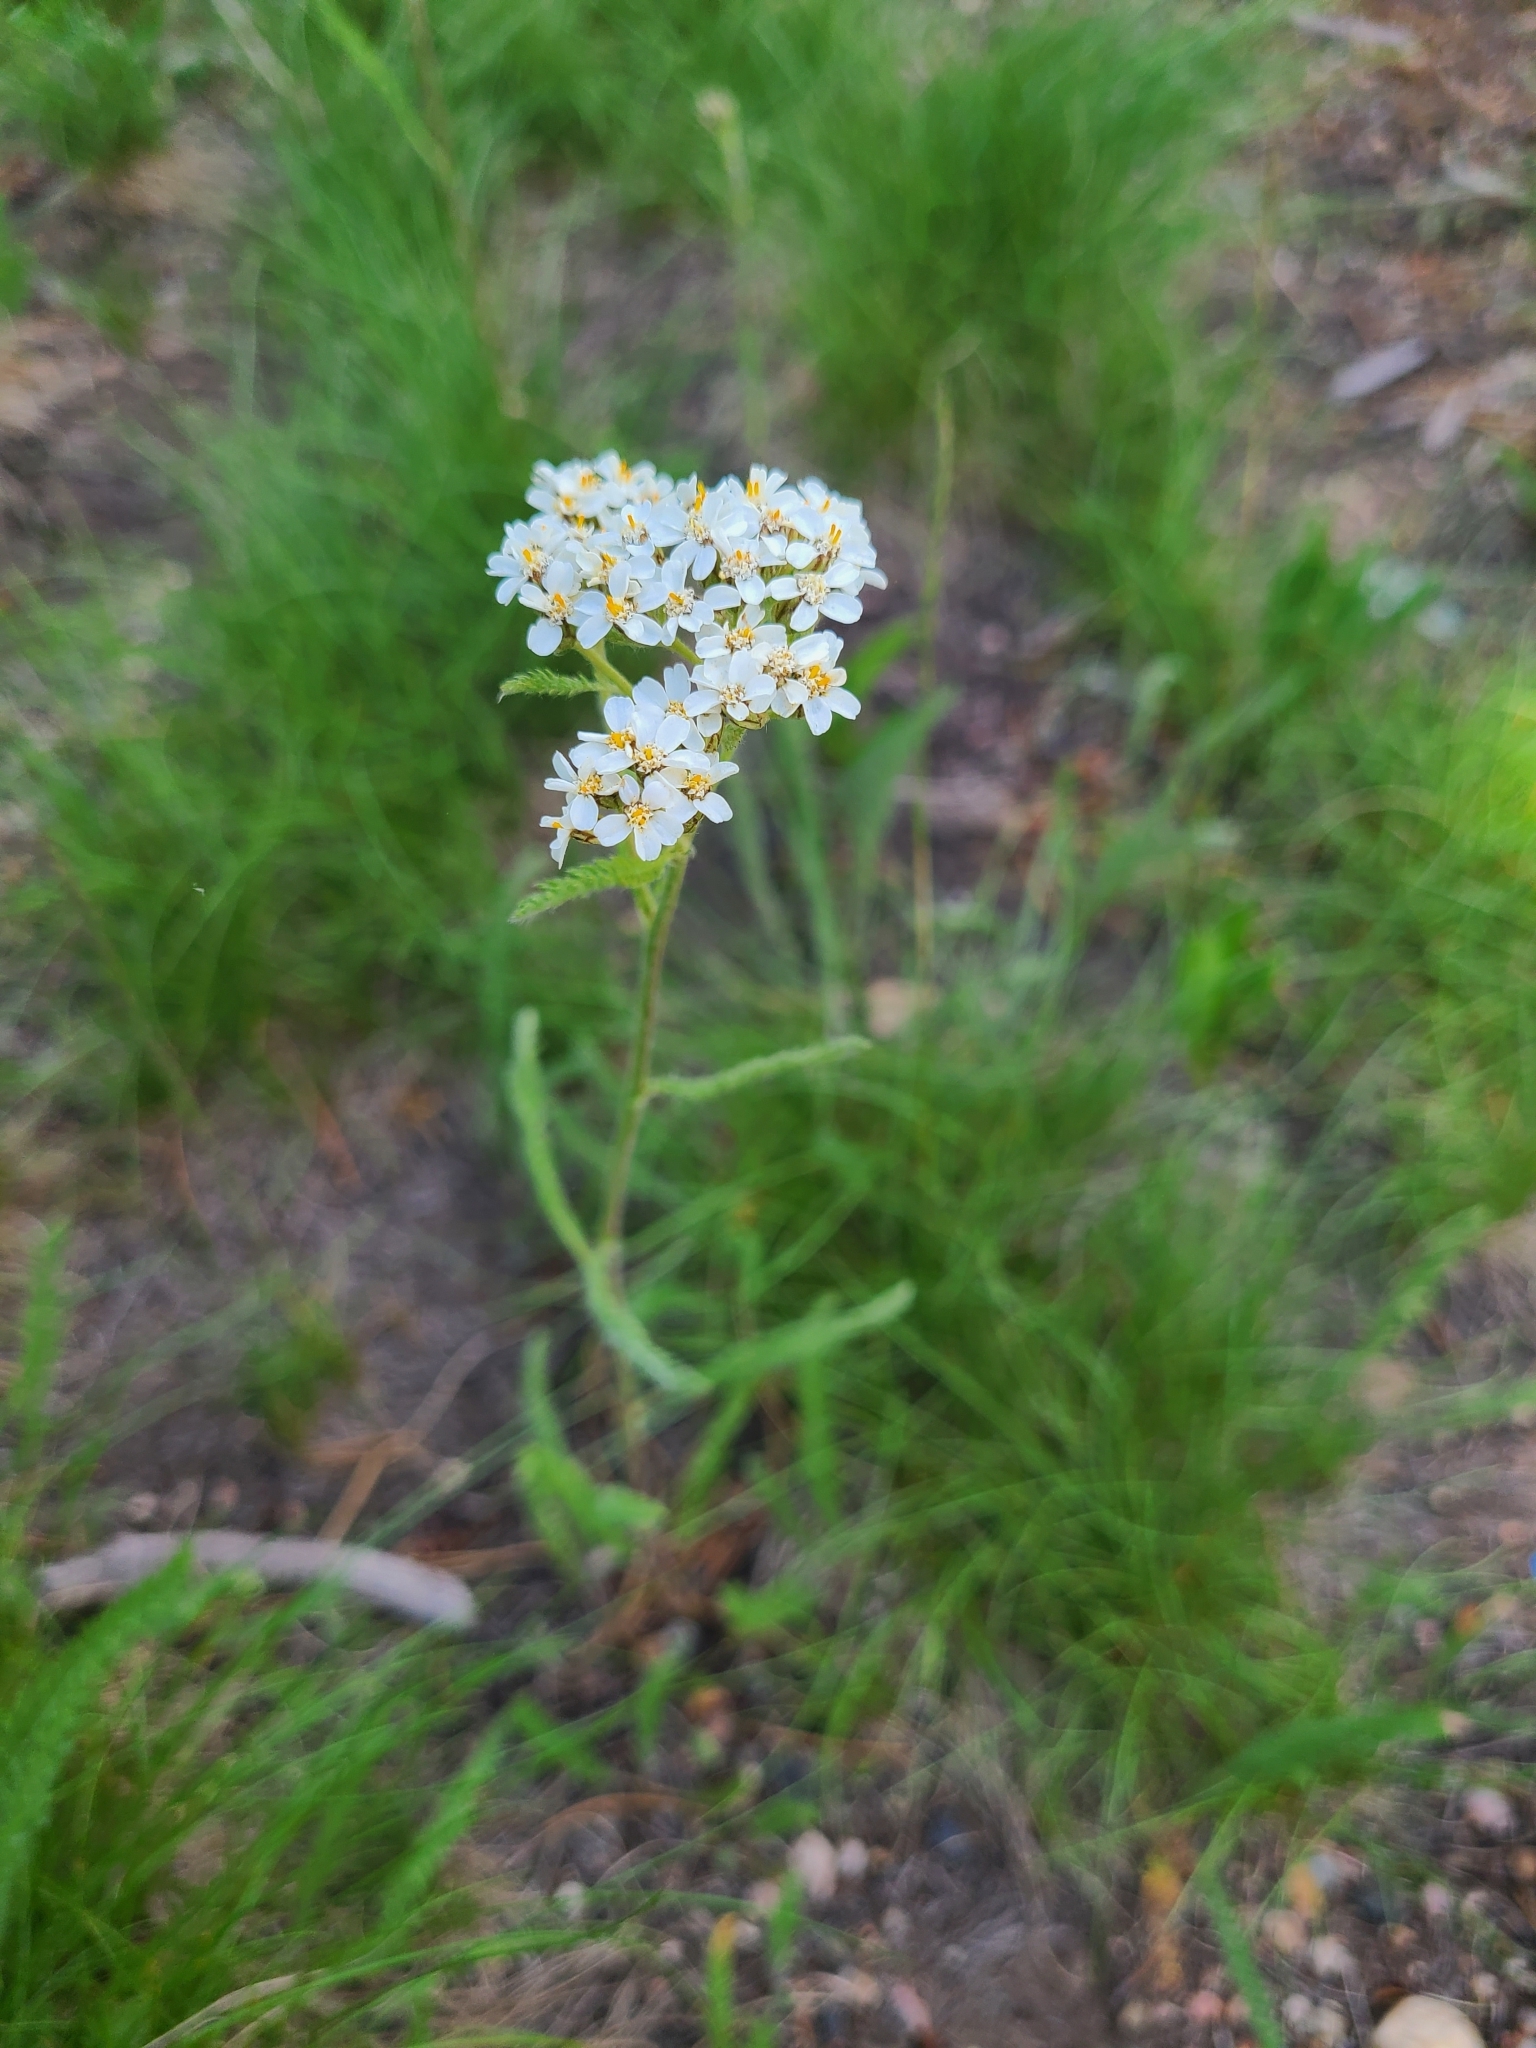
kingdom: Plantae
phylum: Tracheophyta
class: Magnoliopsida
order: Asterales
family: Asteraceae
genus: Achillea
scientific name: Achillea millefolium
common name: Yarrow
